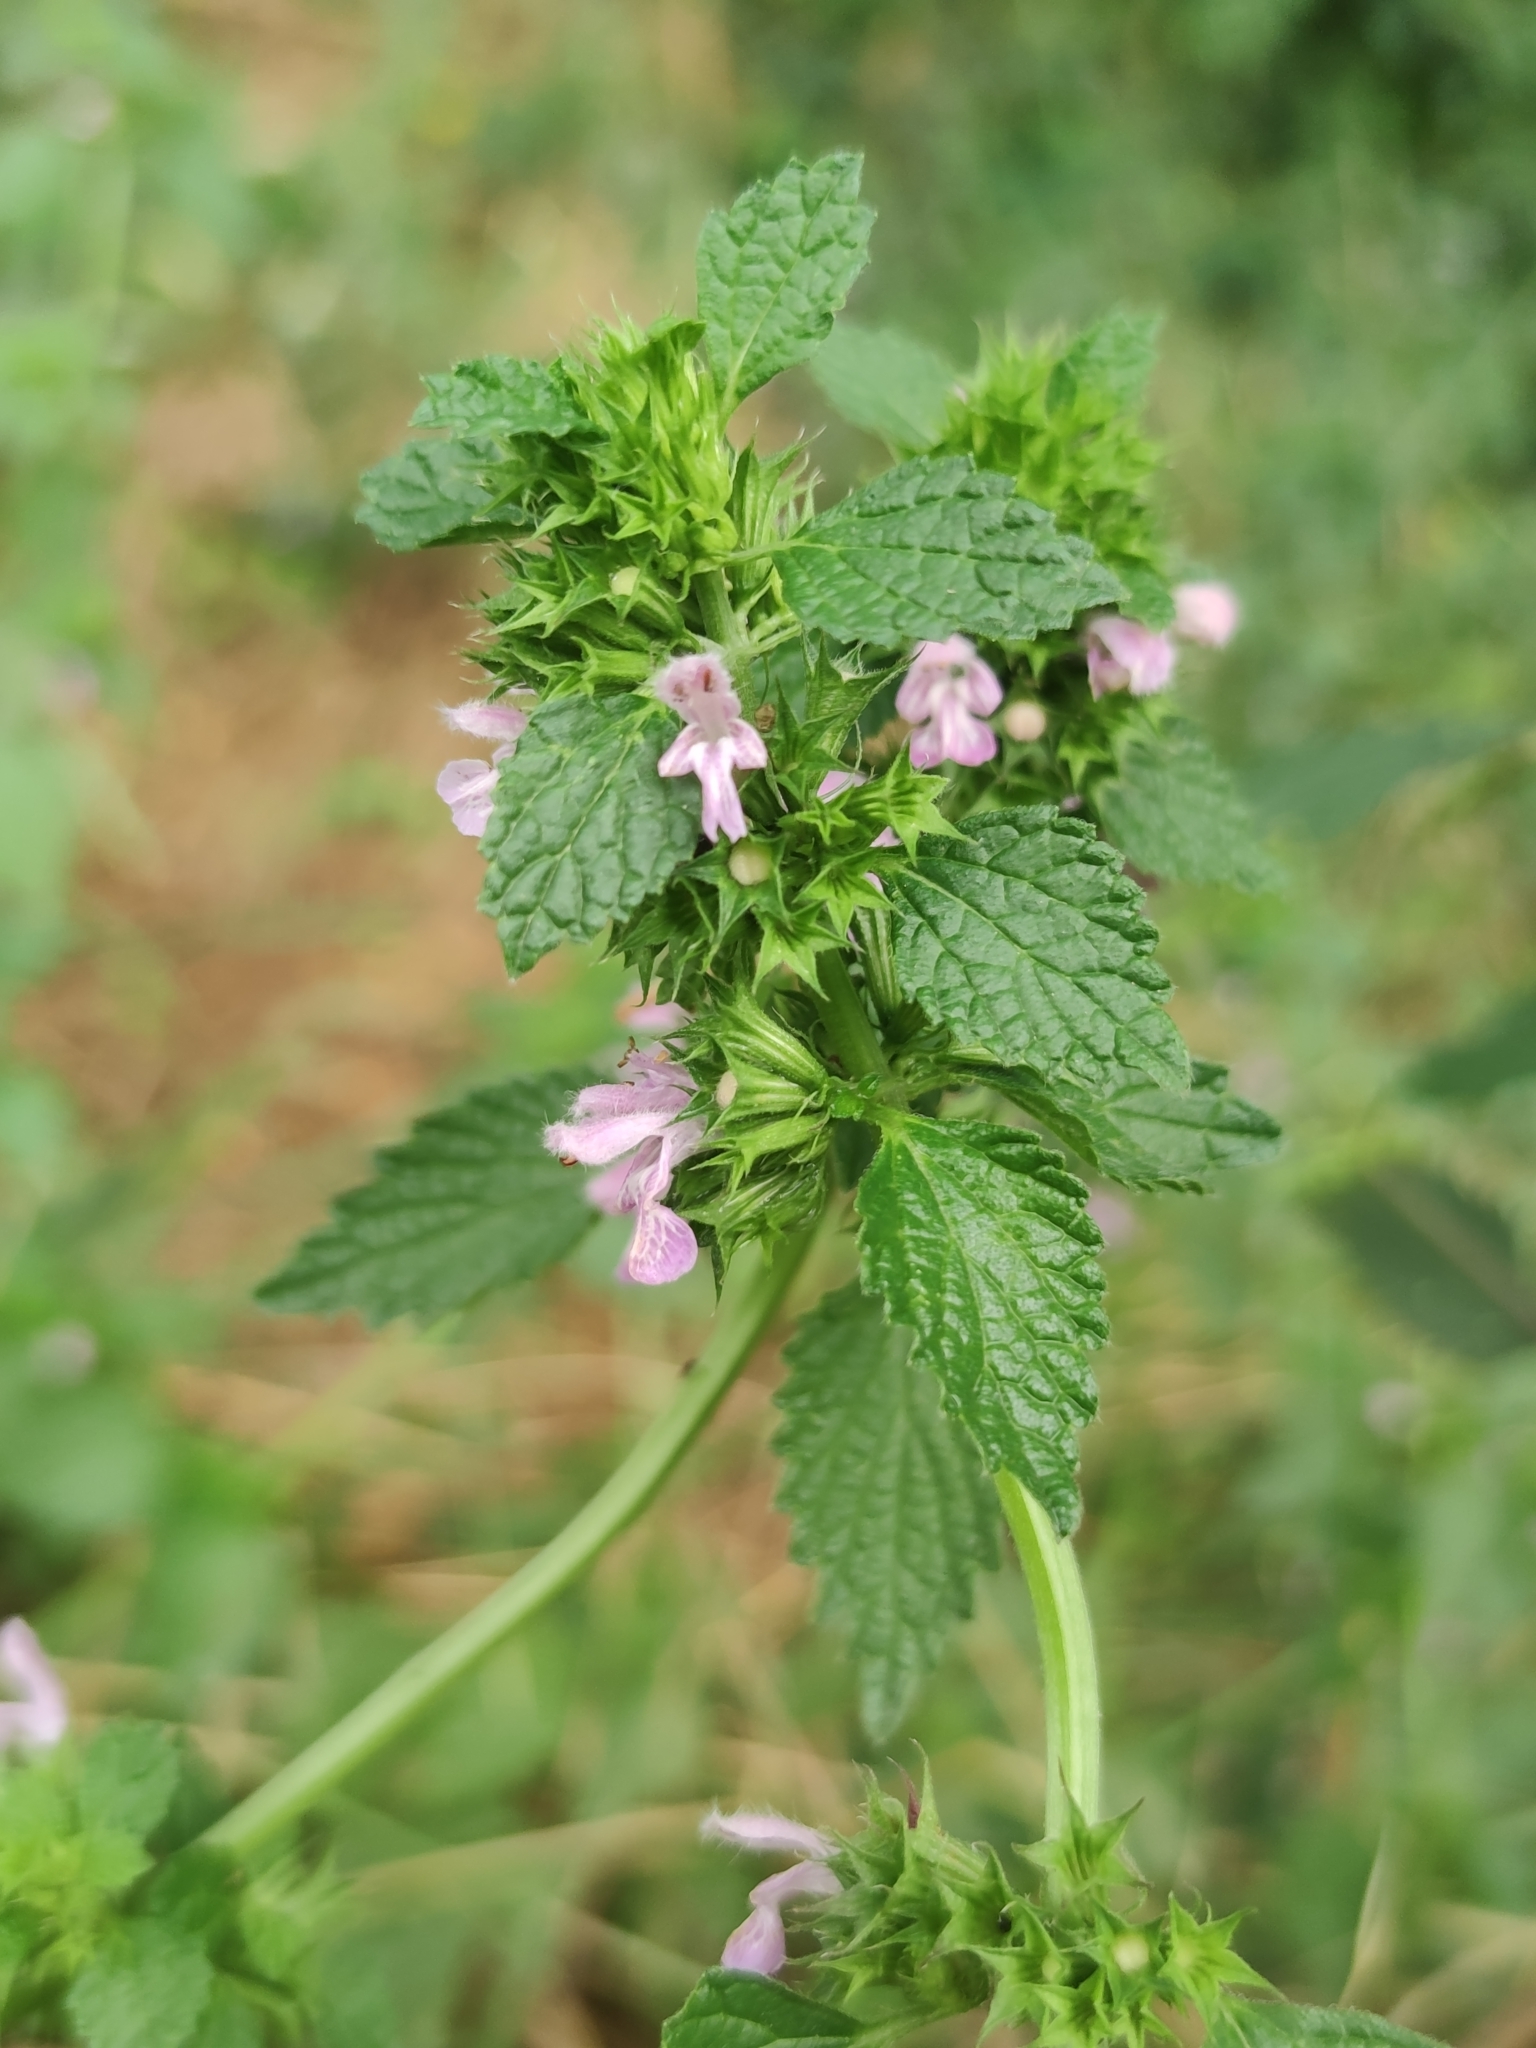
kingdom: Plantae
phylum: Tracheophyta
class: Magnoliopsida
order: Lamiales
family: Lamiaceae
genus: Ballota
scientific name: Ballota nigra
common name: Black horehound
